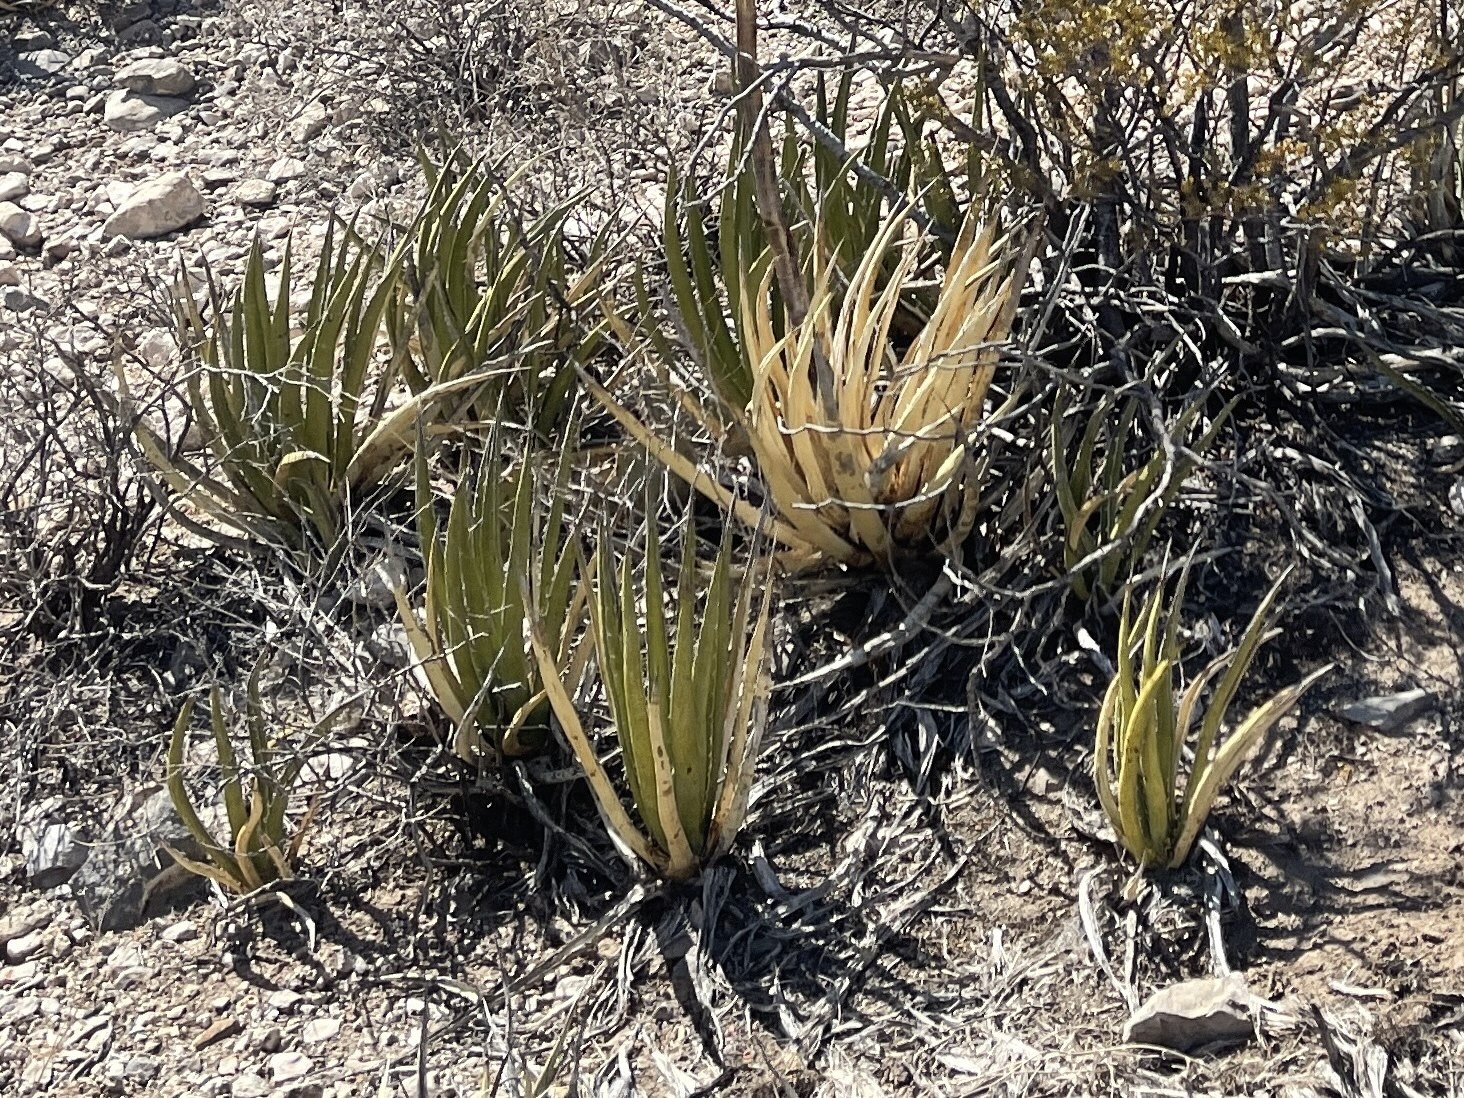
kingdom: Plantae
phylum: Tracheophyta
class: Liliopsida
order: Asparagales
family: Asparagaceae
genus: Agave
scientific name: Agave lechuguilla
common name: Lecheguilla agave
